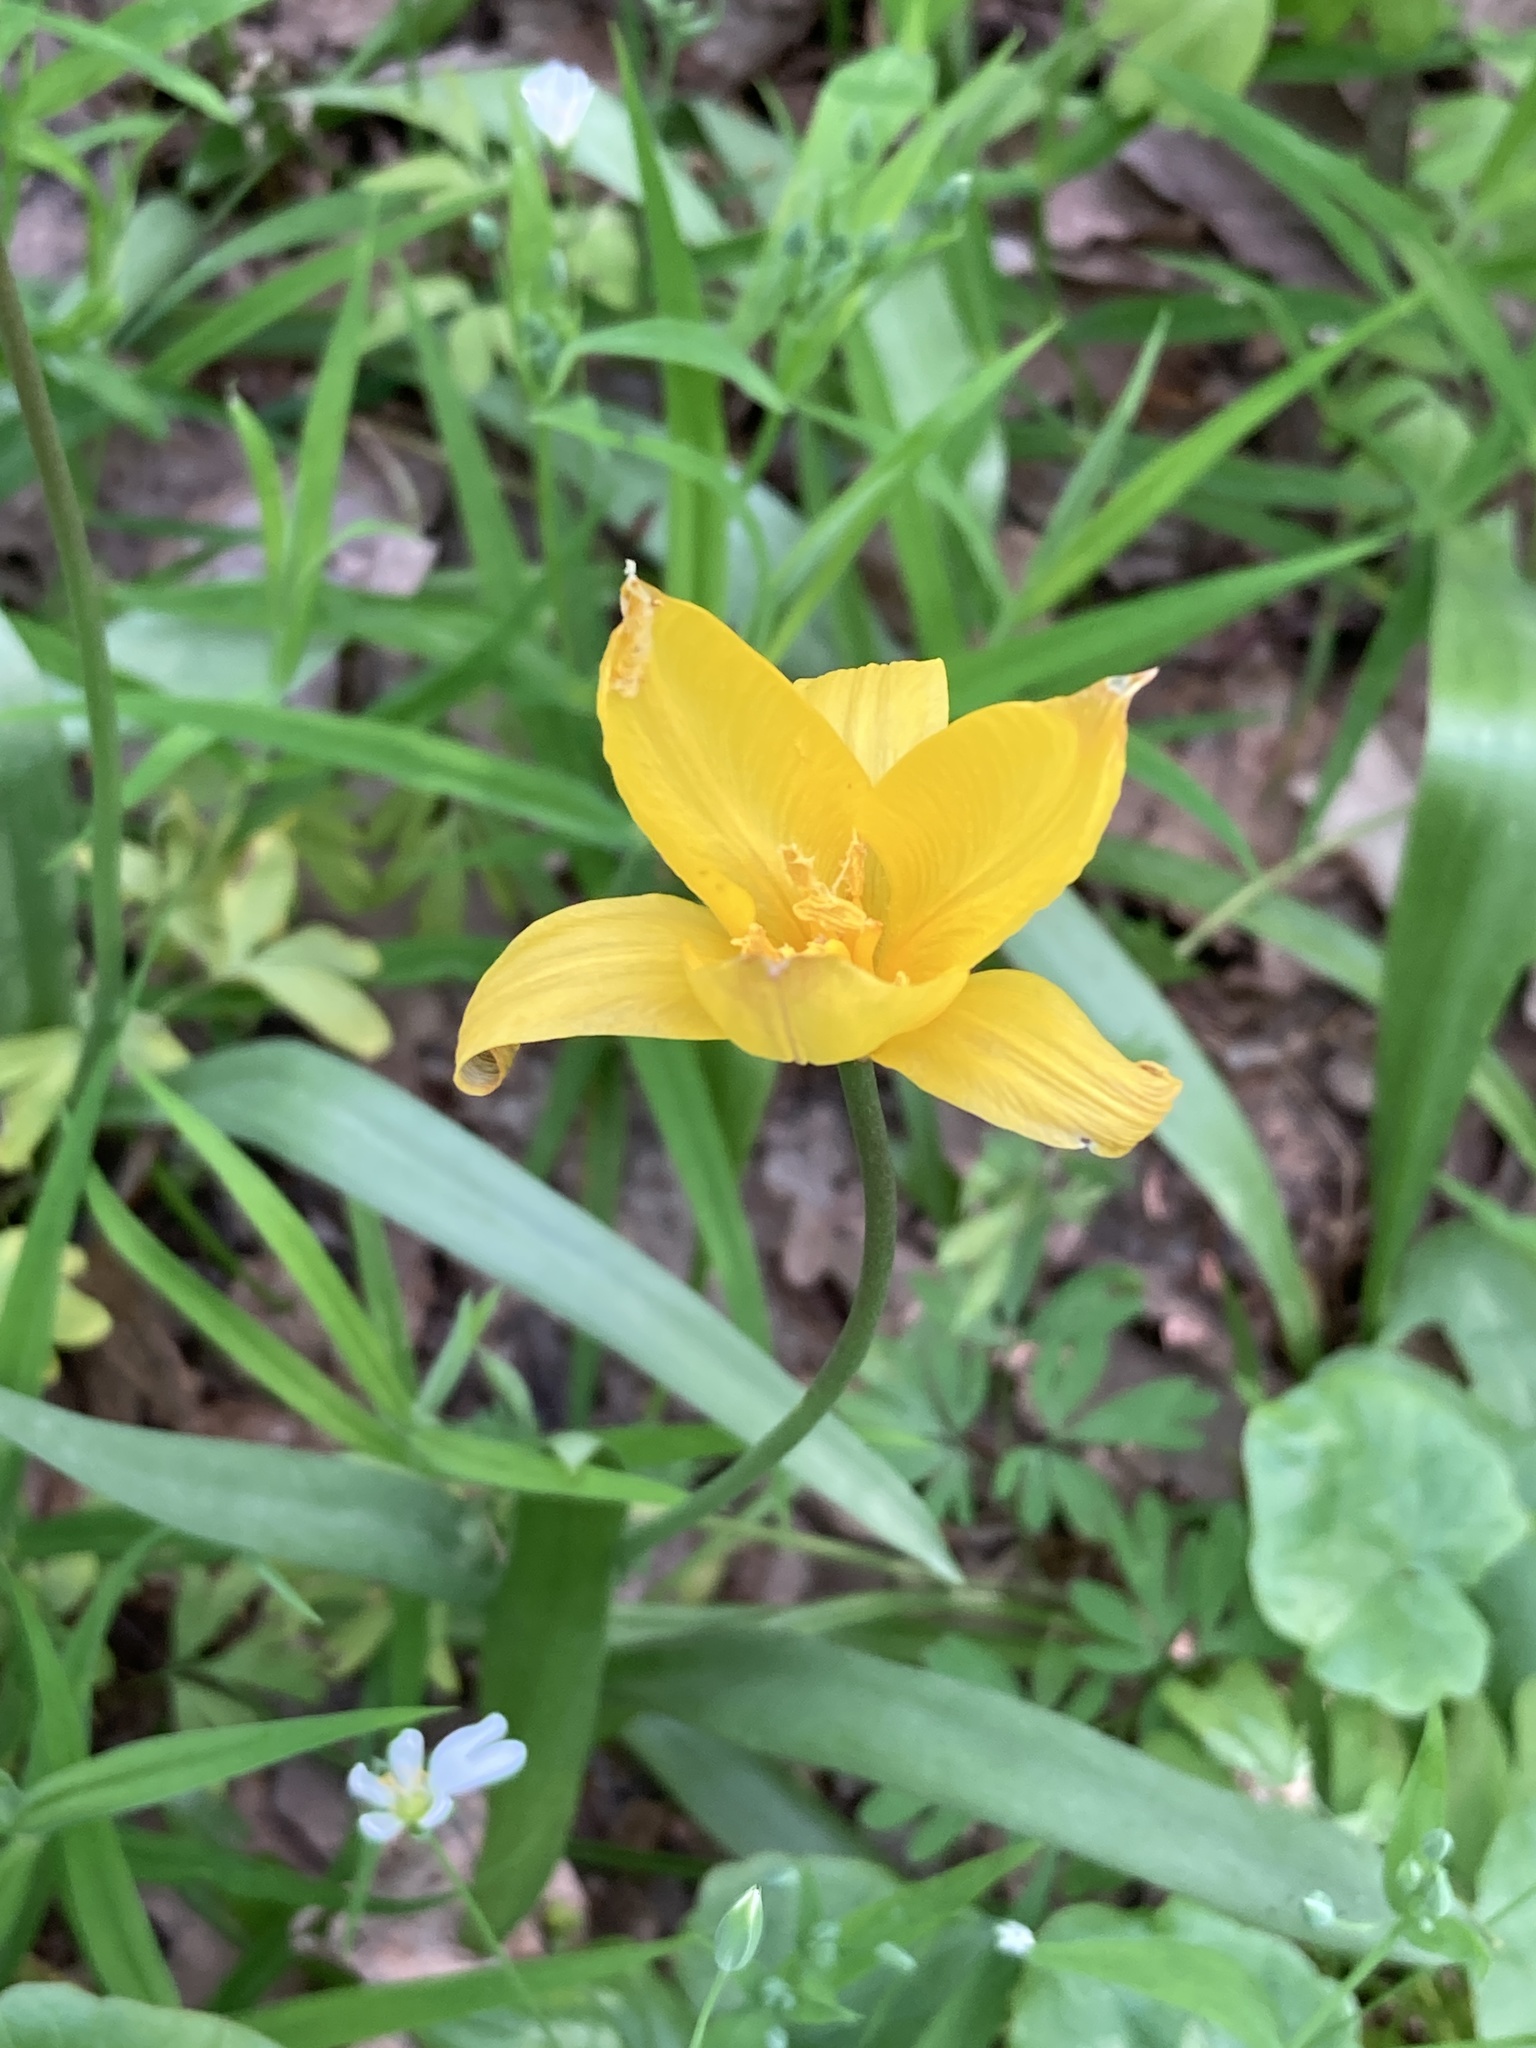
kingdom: Plantae
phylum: Tracheophyta
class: Liliopsida
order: Liliales
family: Liliaceae
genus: Tulipa
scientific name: Tulipa sylvestris
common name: Wild tulip
